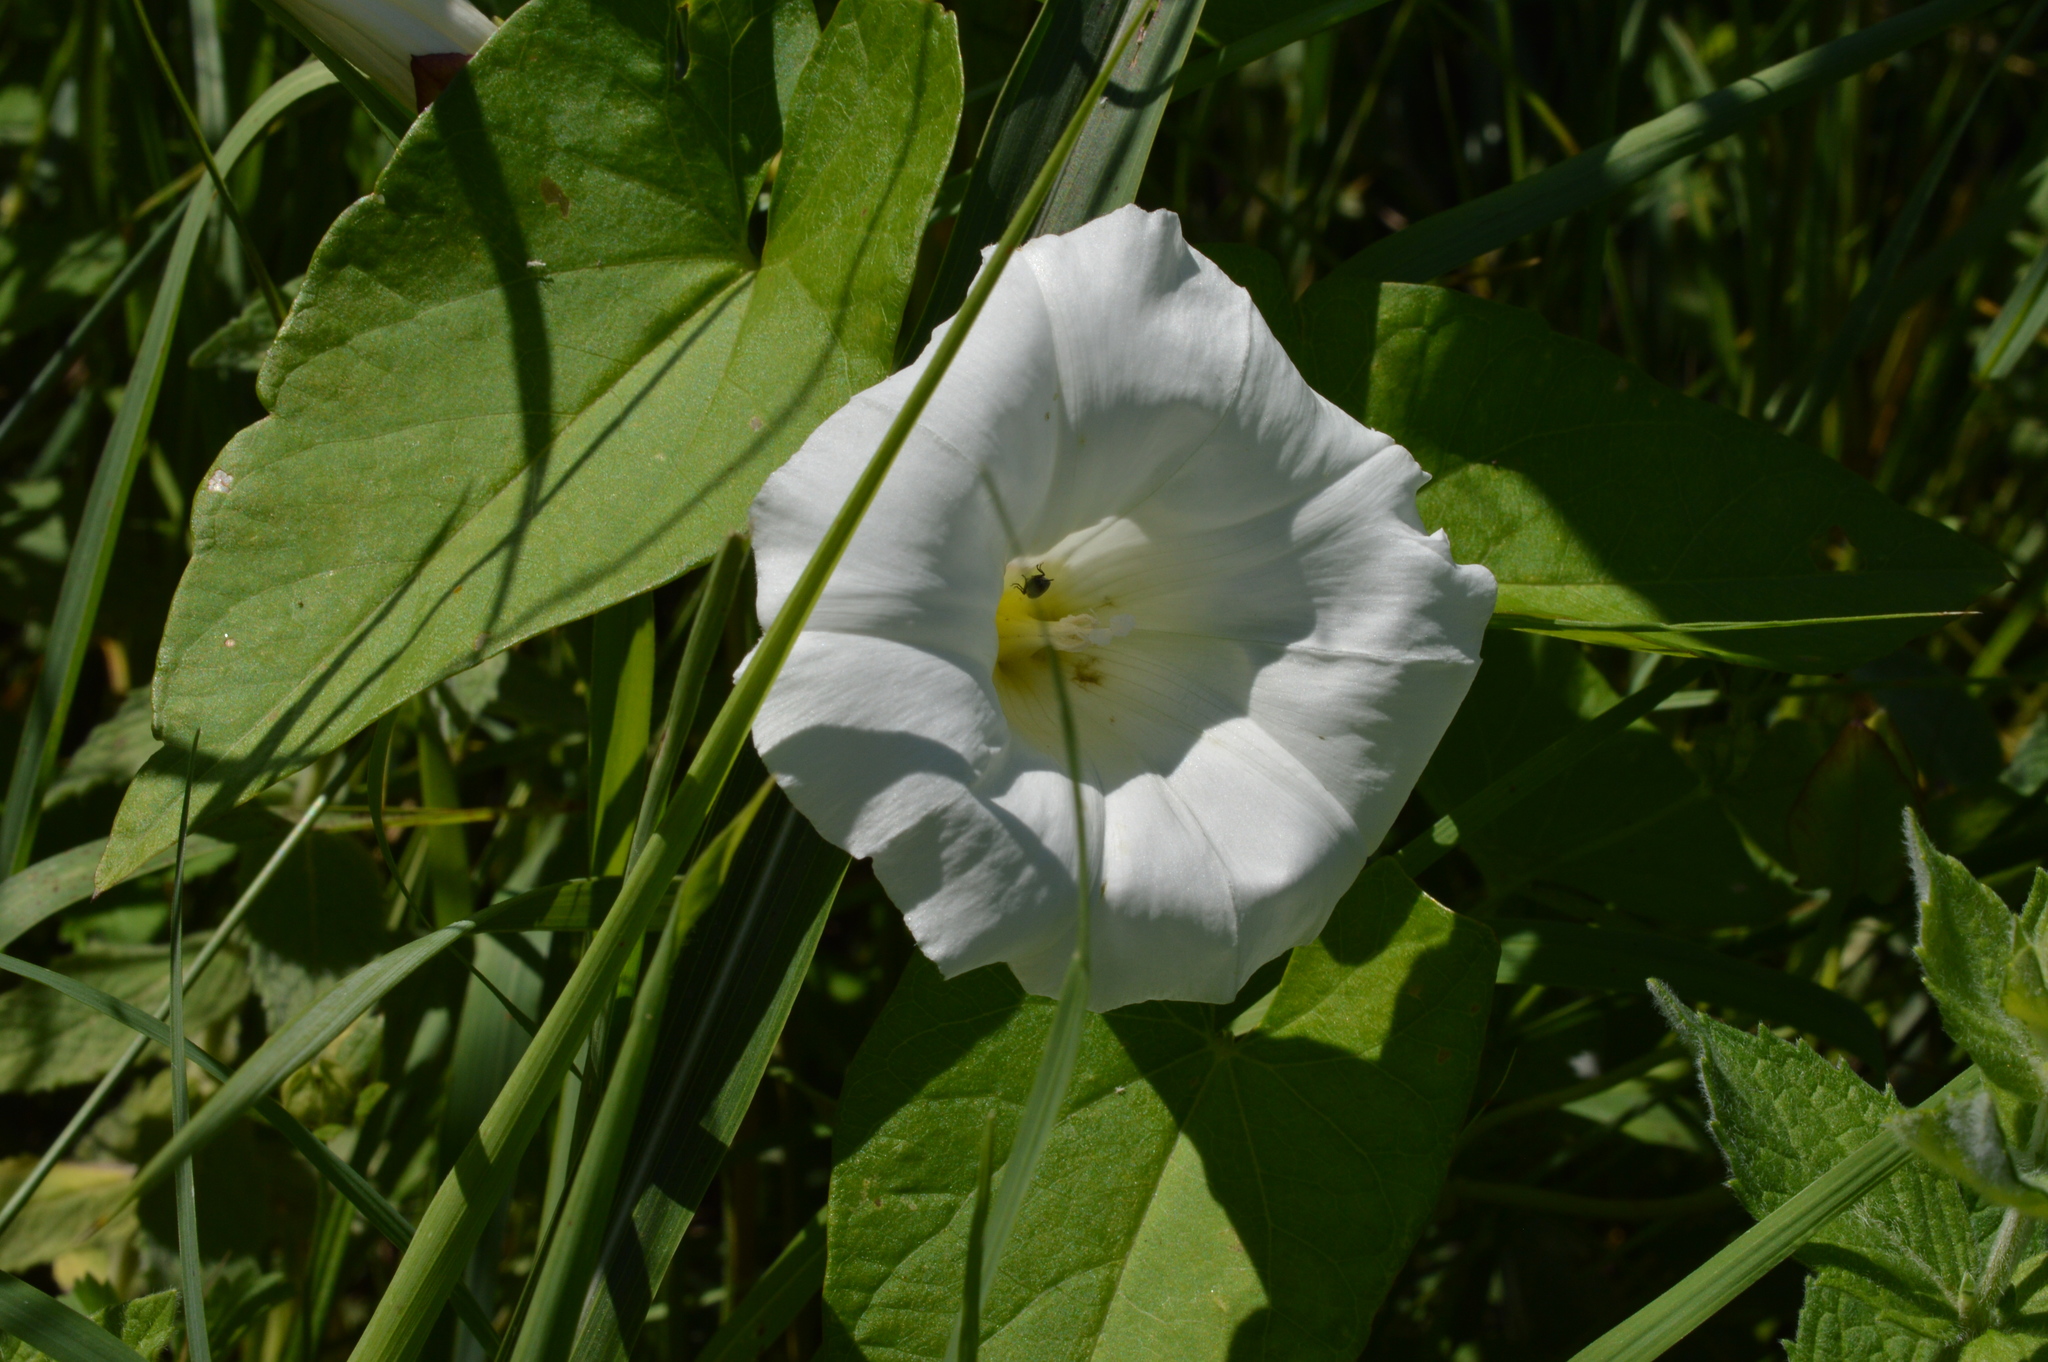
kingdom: Plantae
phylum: Tracheophyta
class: Magnoliopsida
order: Solanales
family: Convolvulaceae
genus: Calystegia
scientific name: Calystegia sepium
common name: Hedge bindweed
